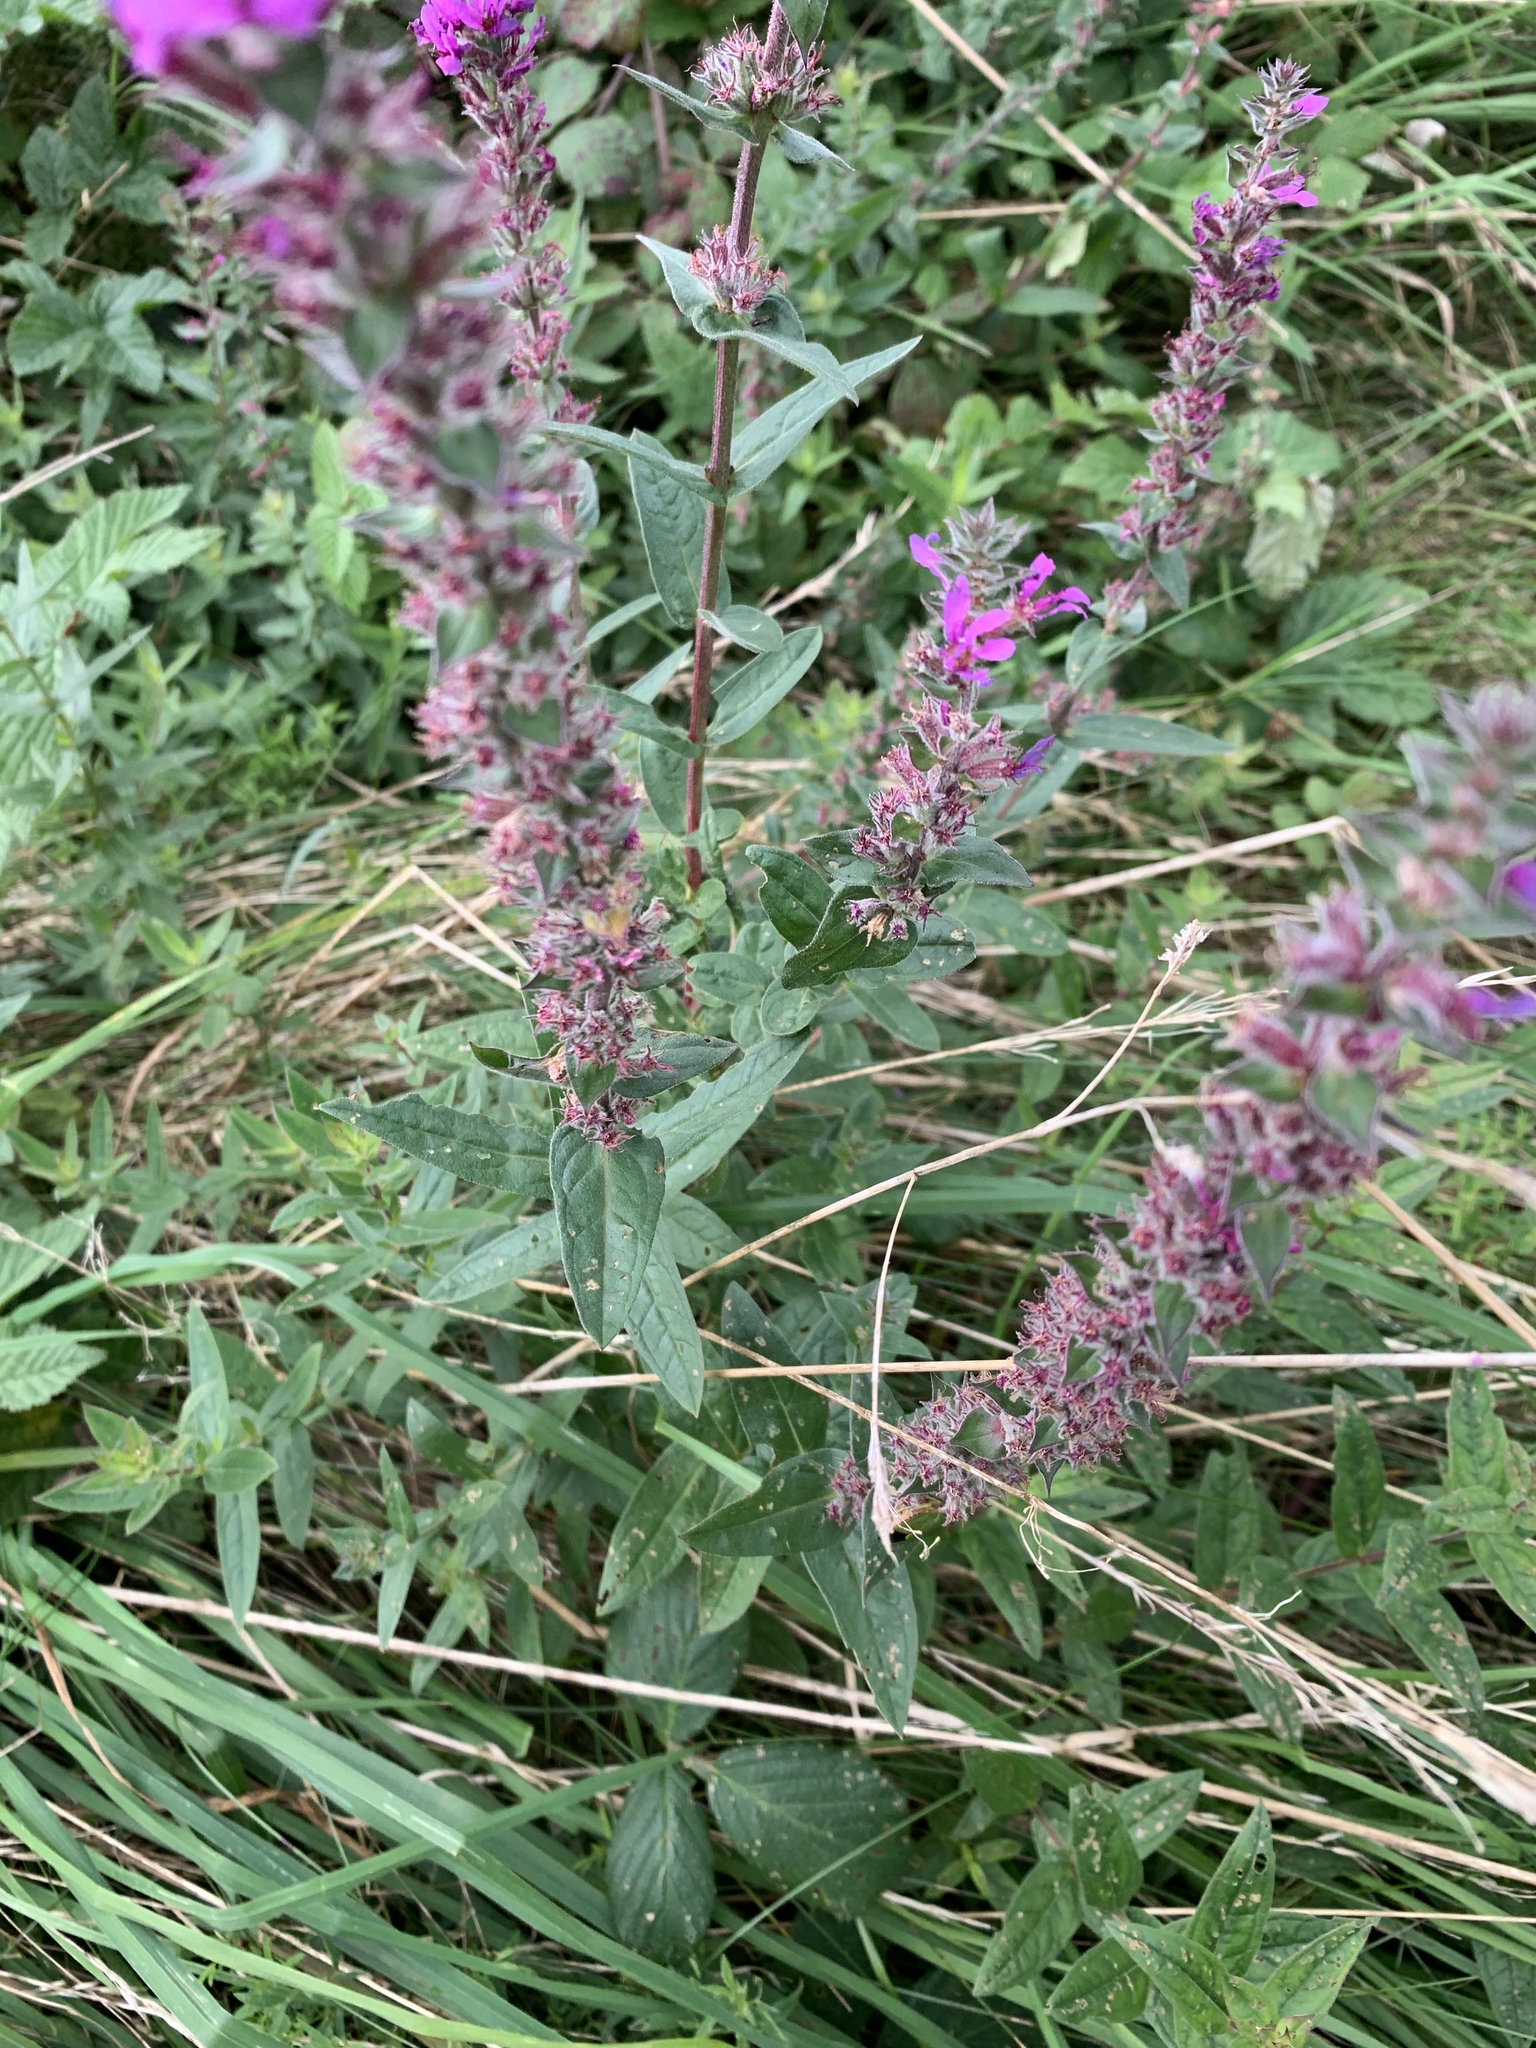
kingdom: Plantae
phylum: Tracheophyta
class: Magnoliopsida
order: Myrtales
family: Lythraceae
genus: Lythrum
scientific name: Lythrum salicaria
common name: Purple loosestrife
